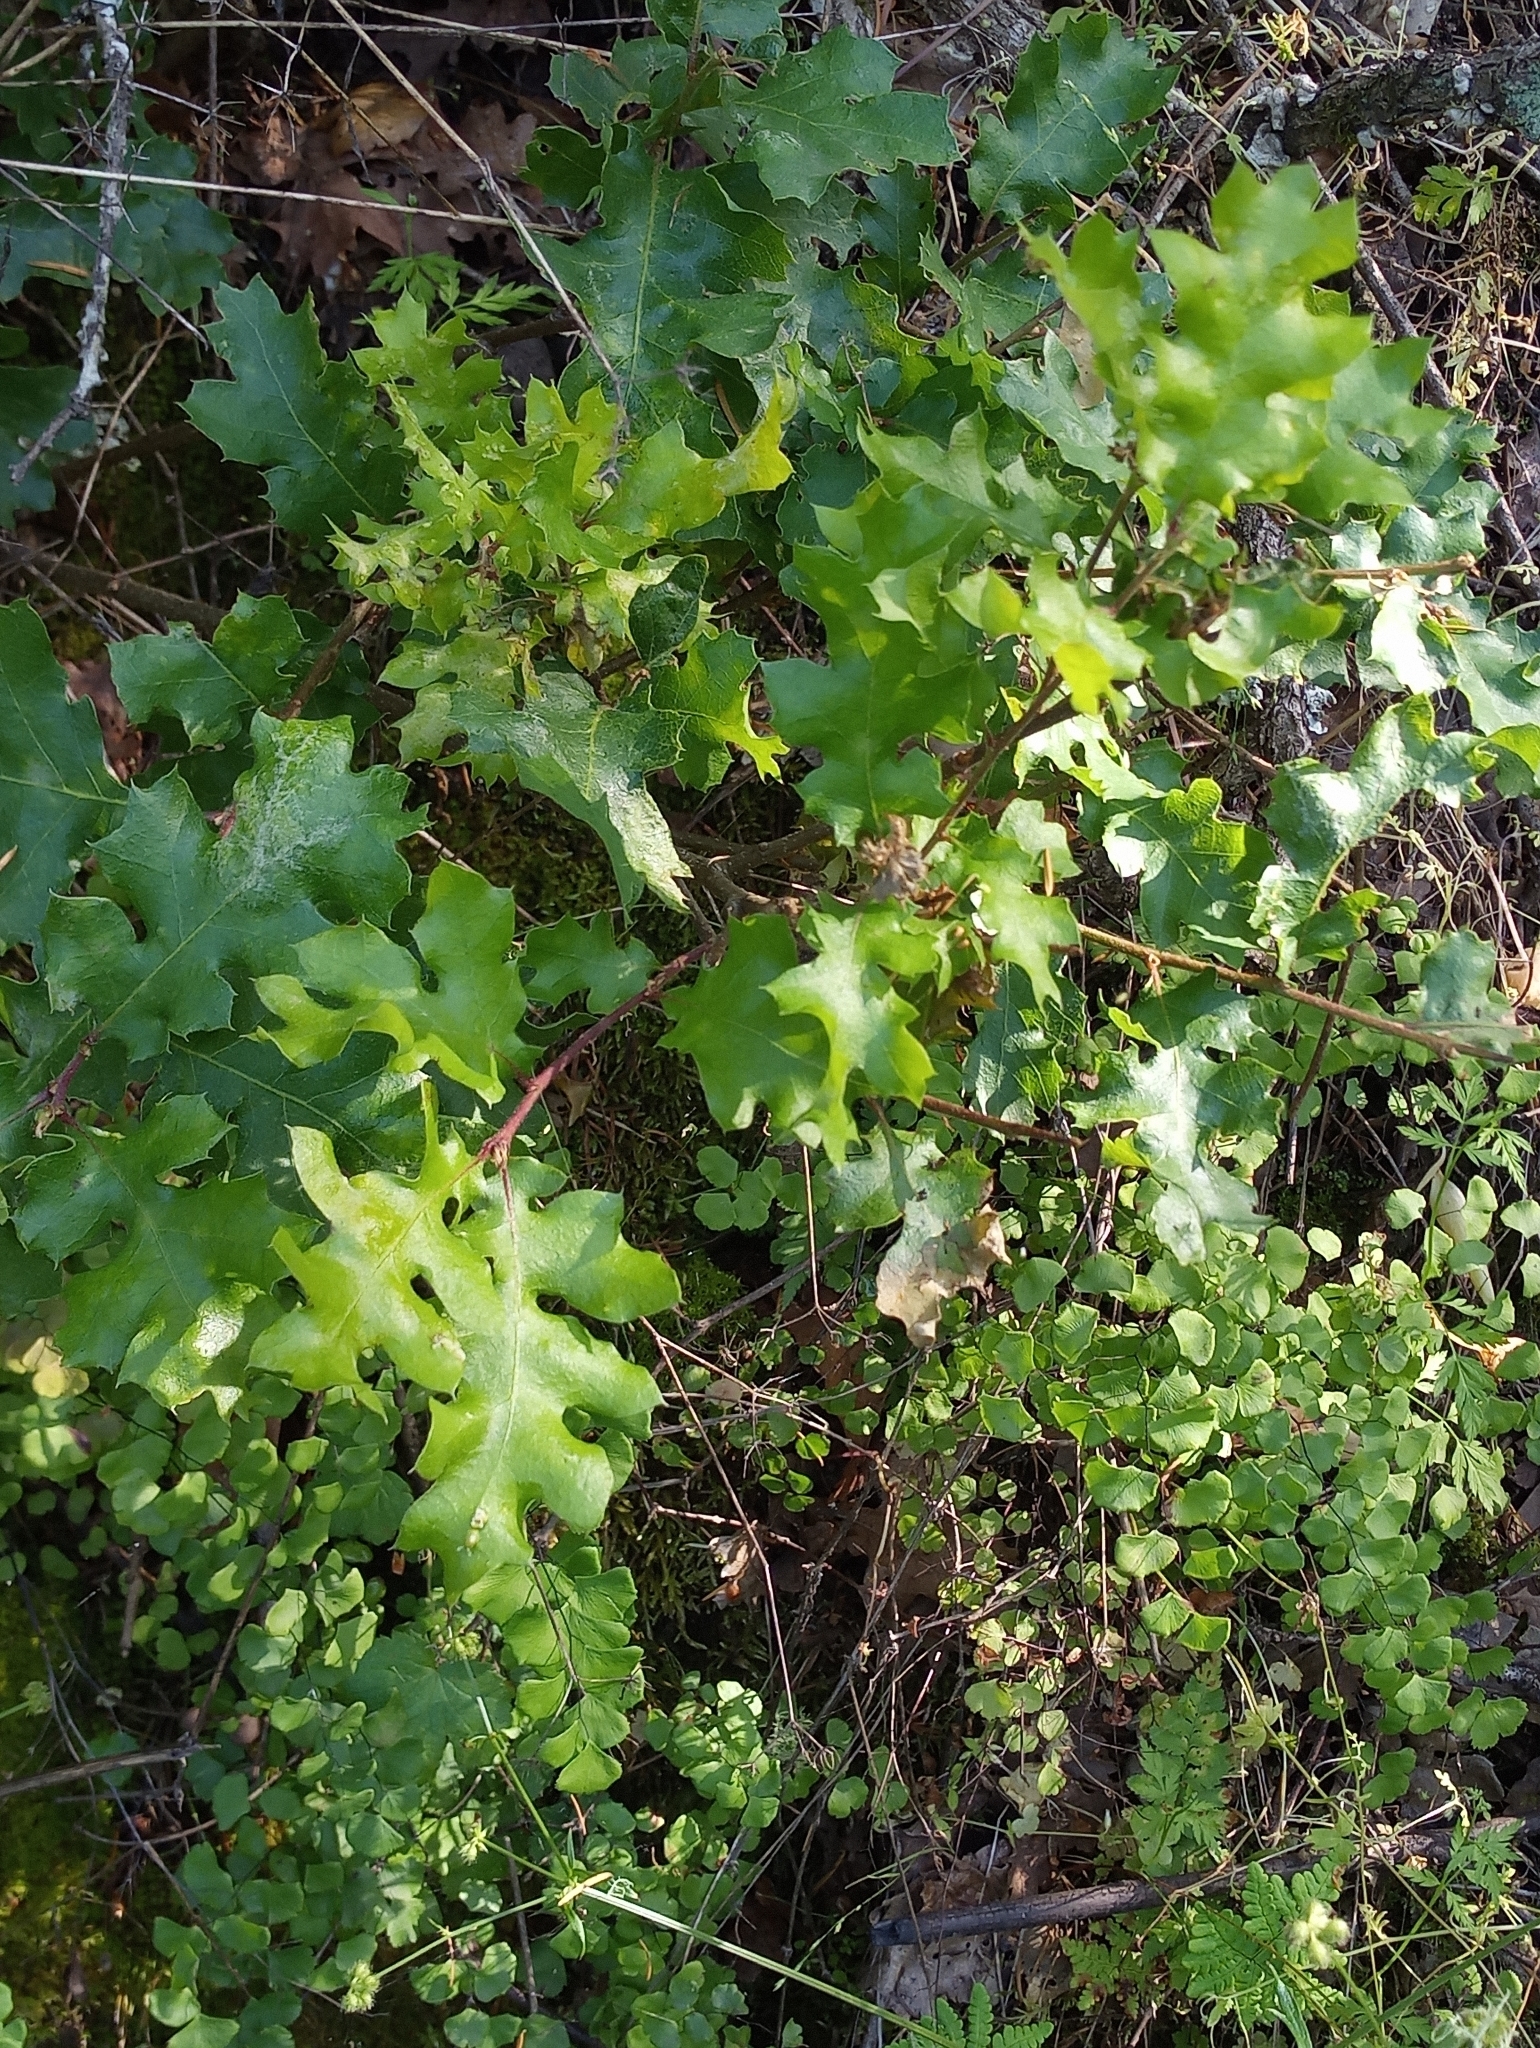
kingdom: Plantae
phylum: Tracheophyta
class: Magnoliopsida
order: Fagales
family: Fagaceae
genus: Quercus
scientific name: Quercus kelloggii
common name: California black oak
